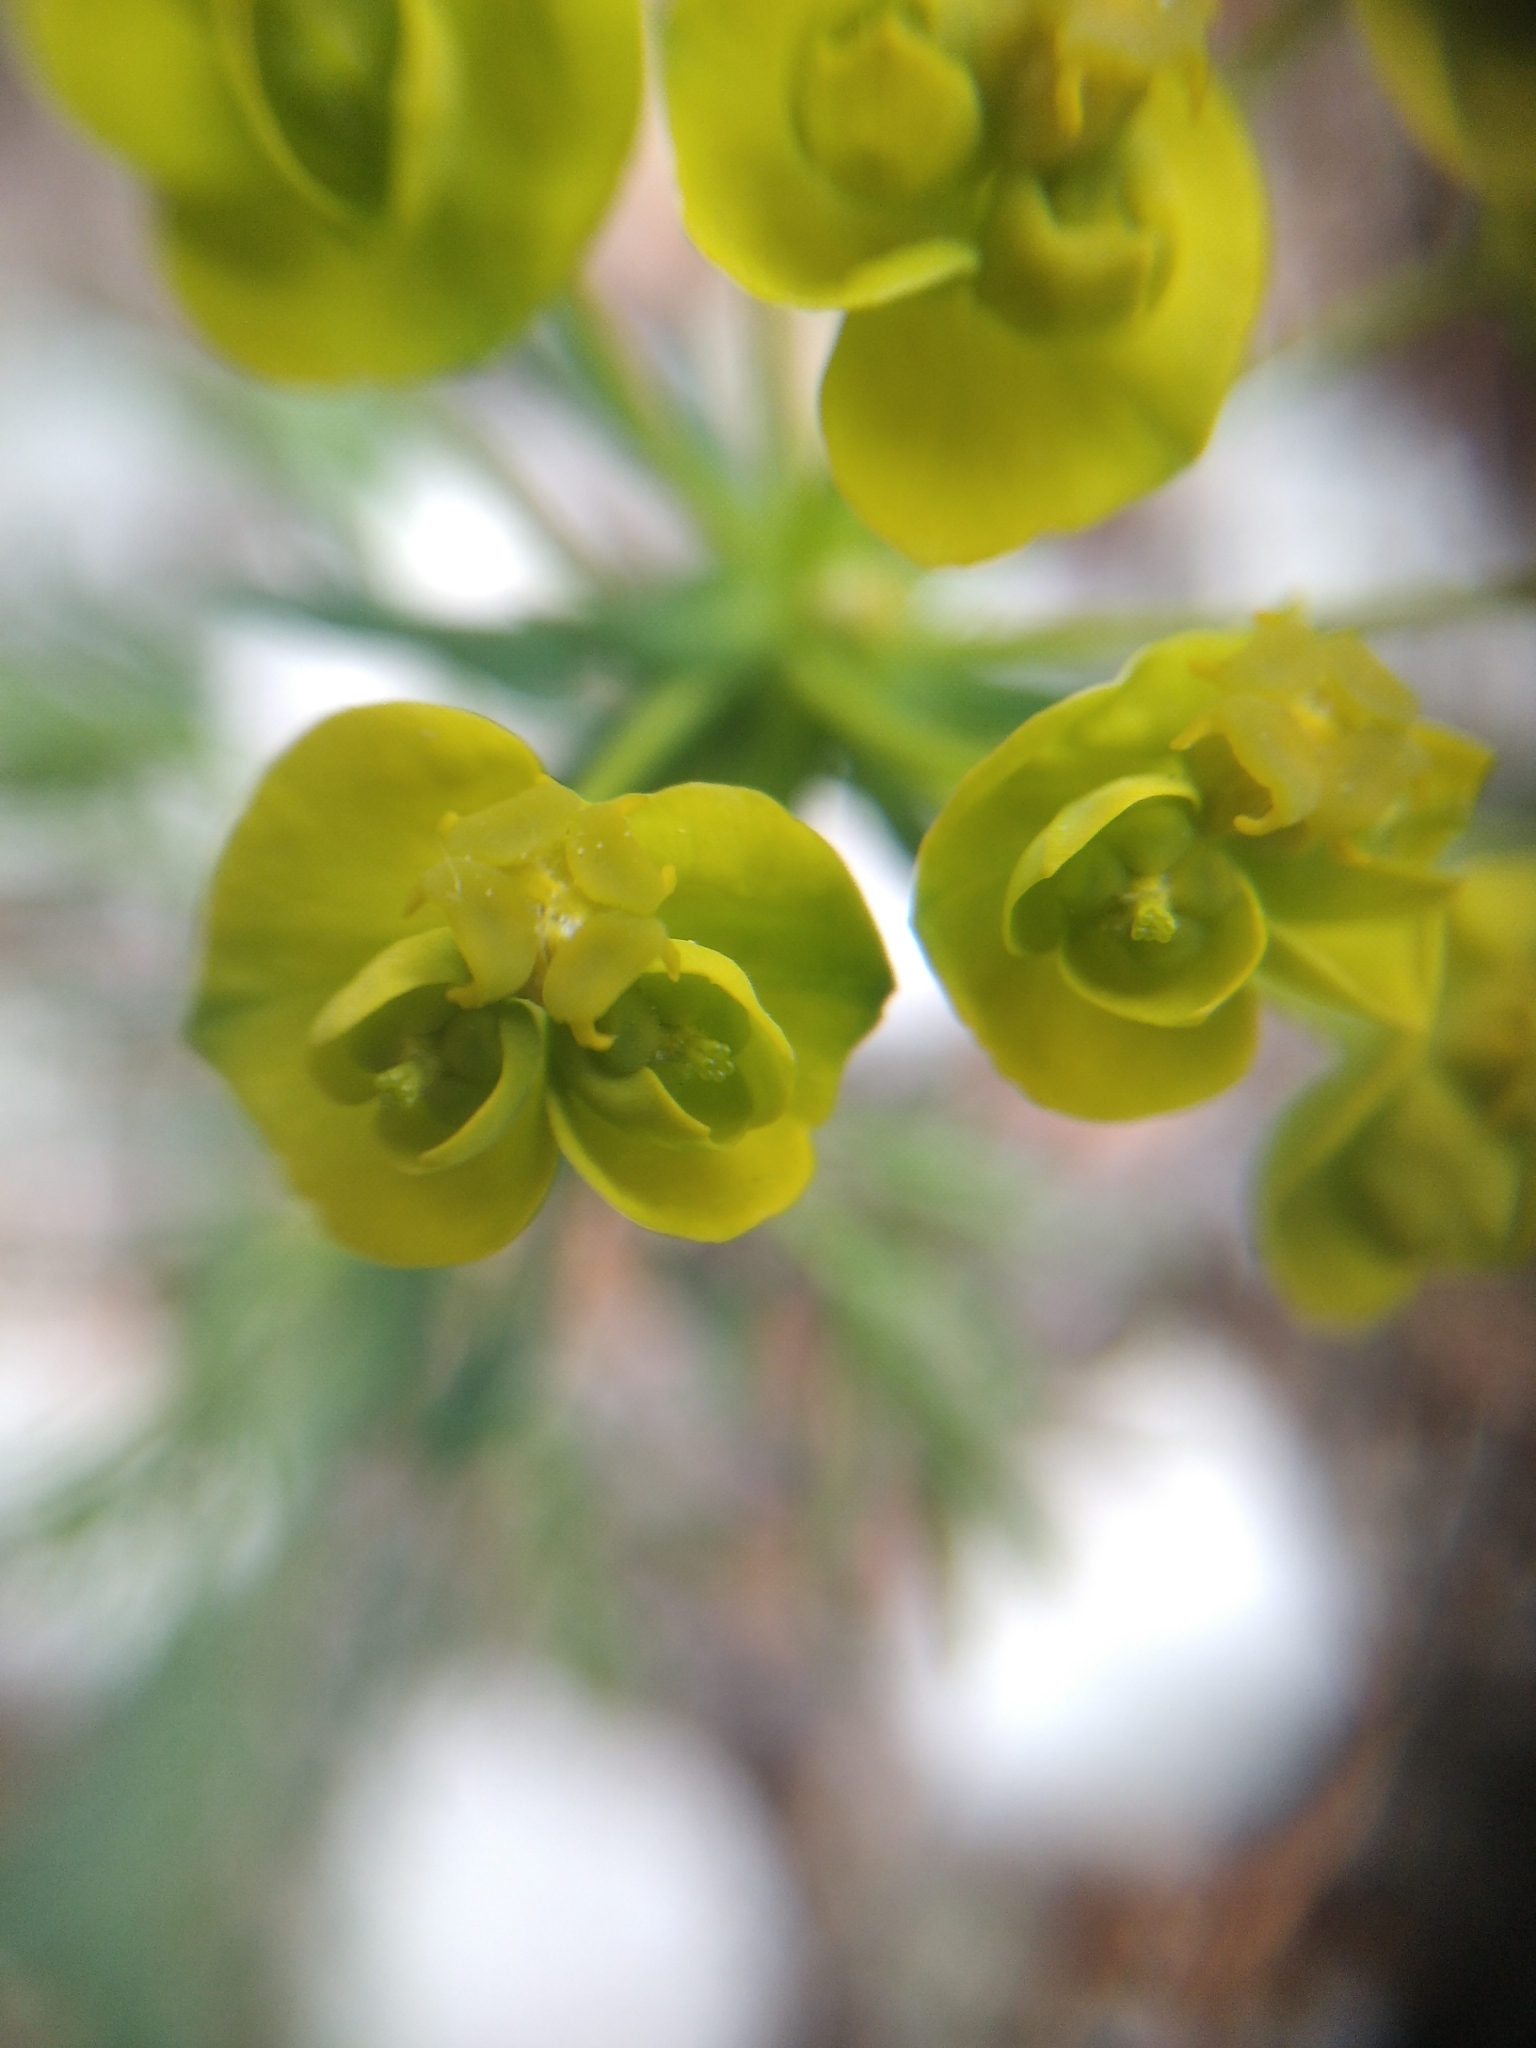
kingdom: Plantae
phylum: Tracheophyta
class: Magnoliopsida
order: Malpighiales
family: Euphorbiaceae
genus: Euphorbia
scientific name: Euphorbia cyparissias
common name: Cypress spurge
